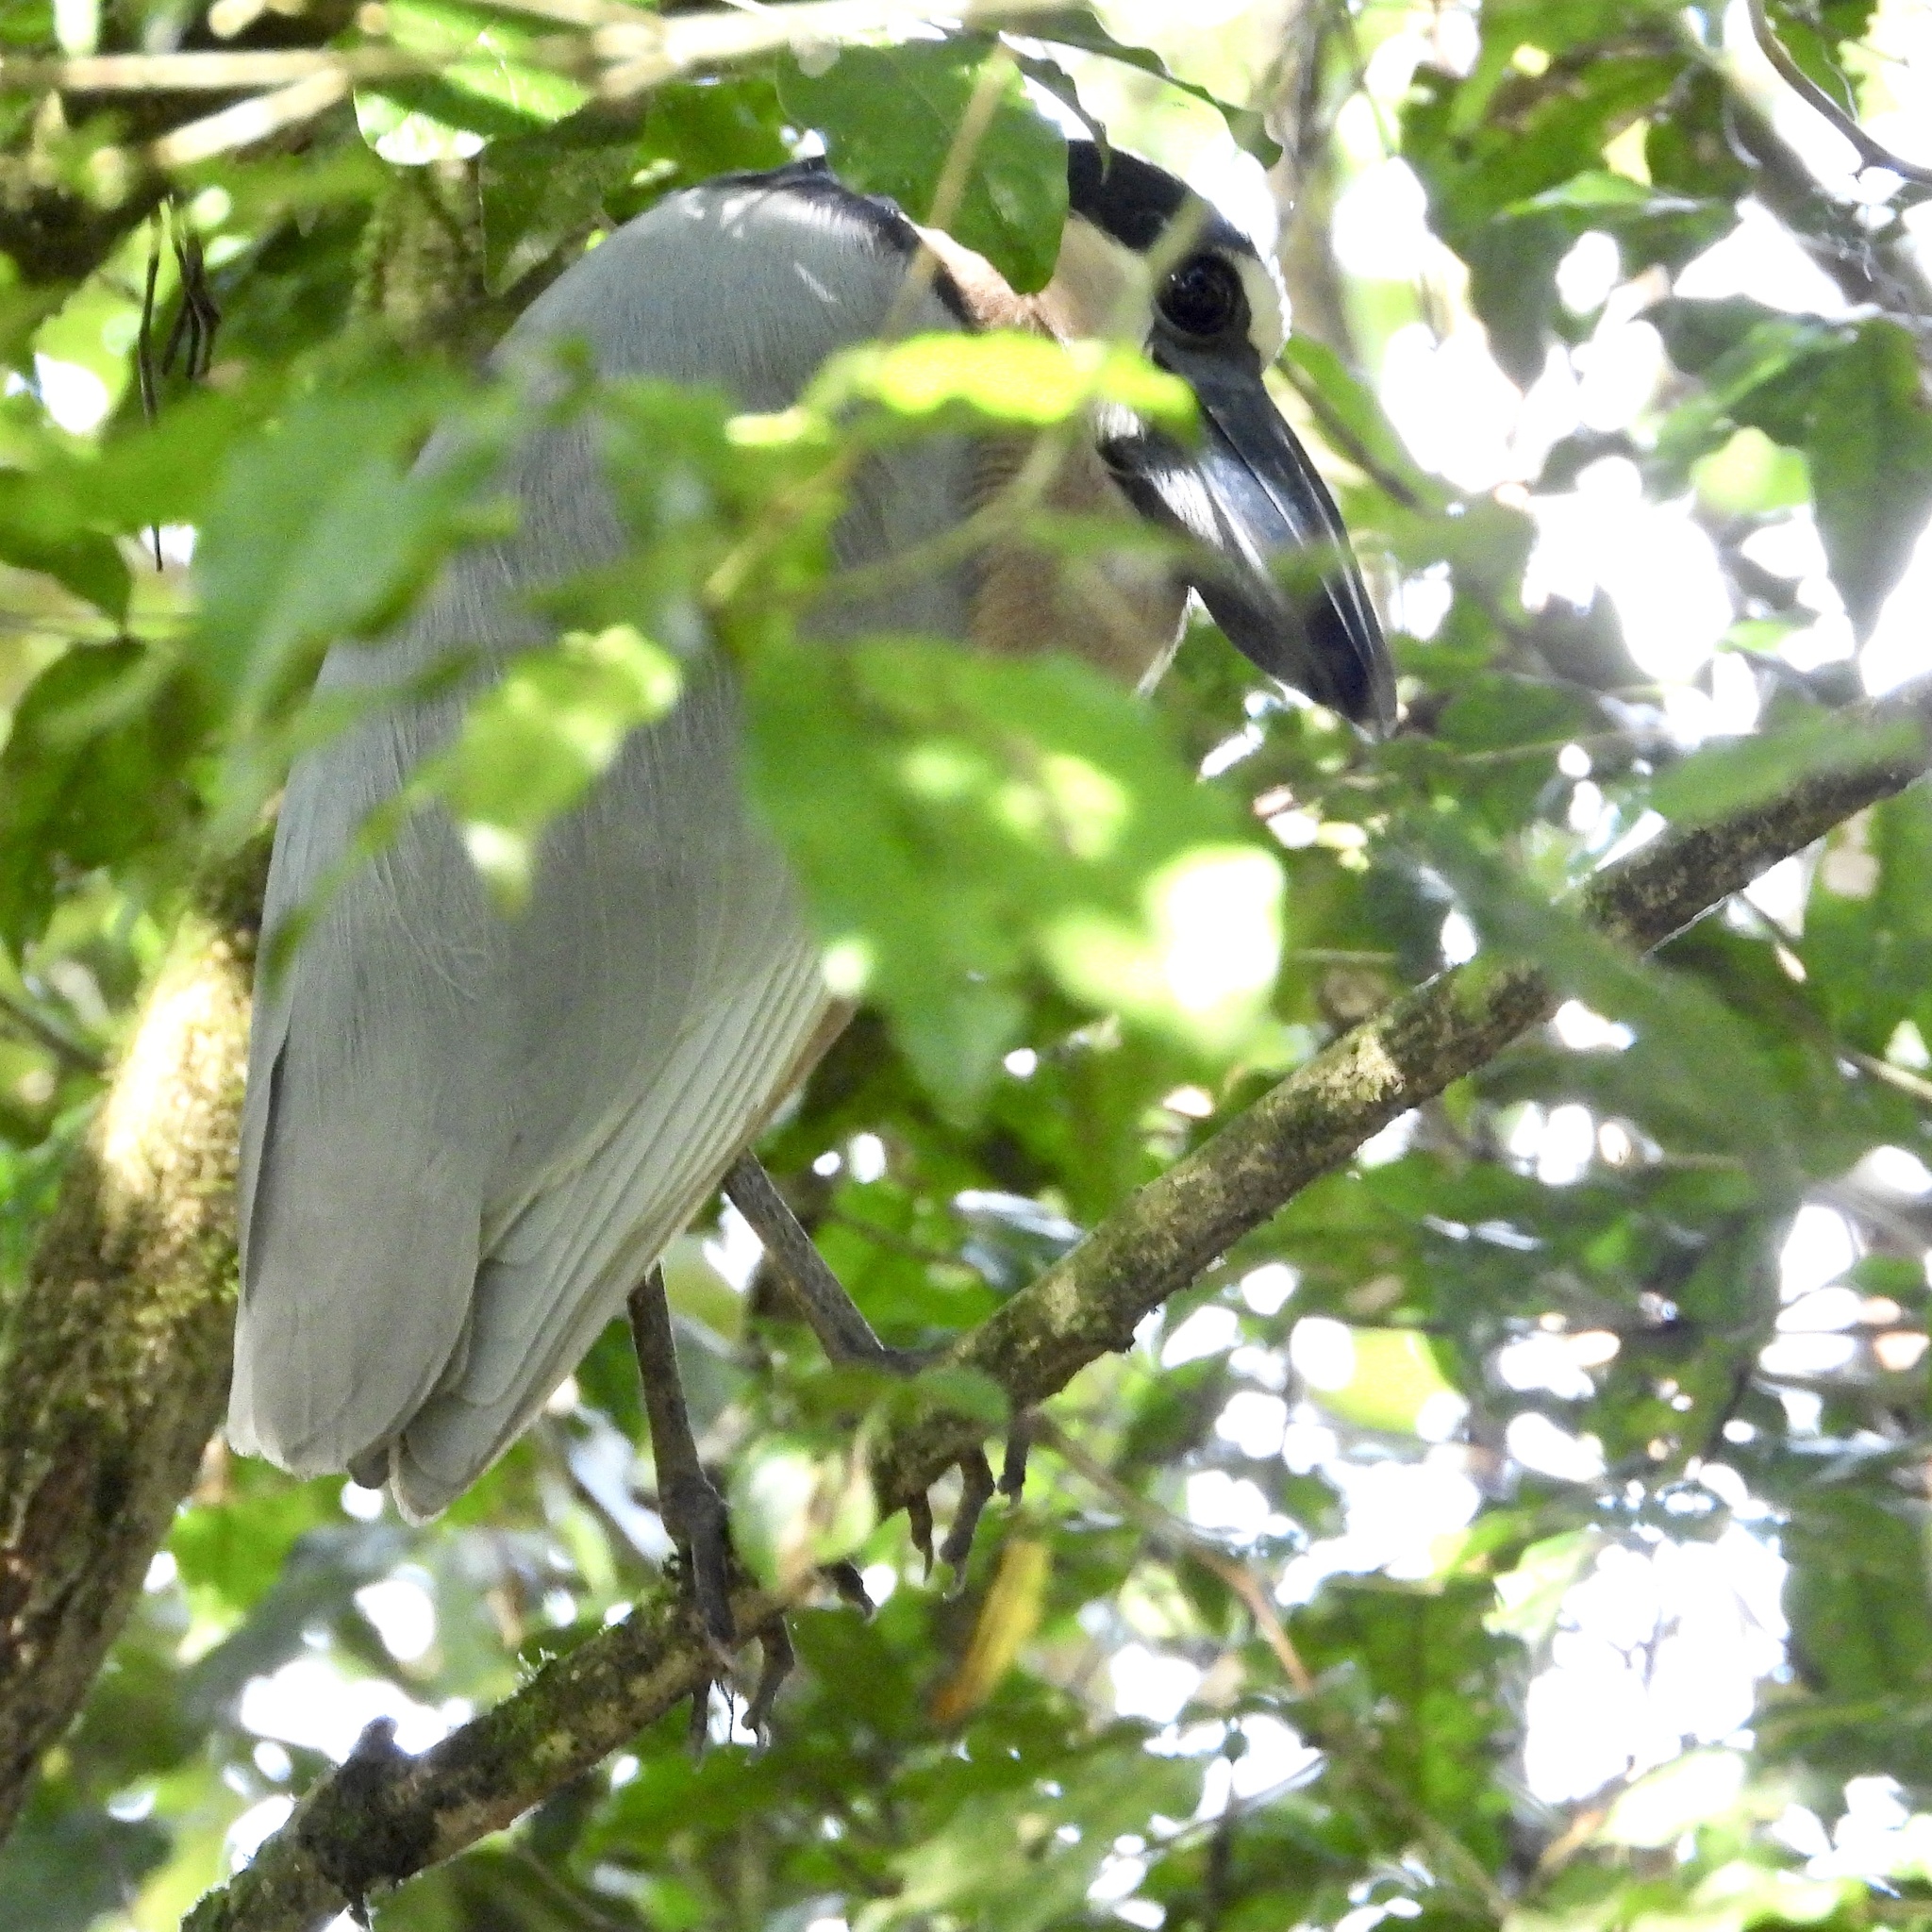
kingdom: Animalia
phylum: Chordata
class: Aves
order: Pelecaniformes
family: Ardeidae
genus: Cochlearius
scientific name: Cochlearius cochlearius
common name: Boat-billed heron
